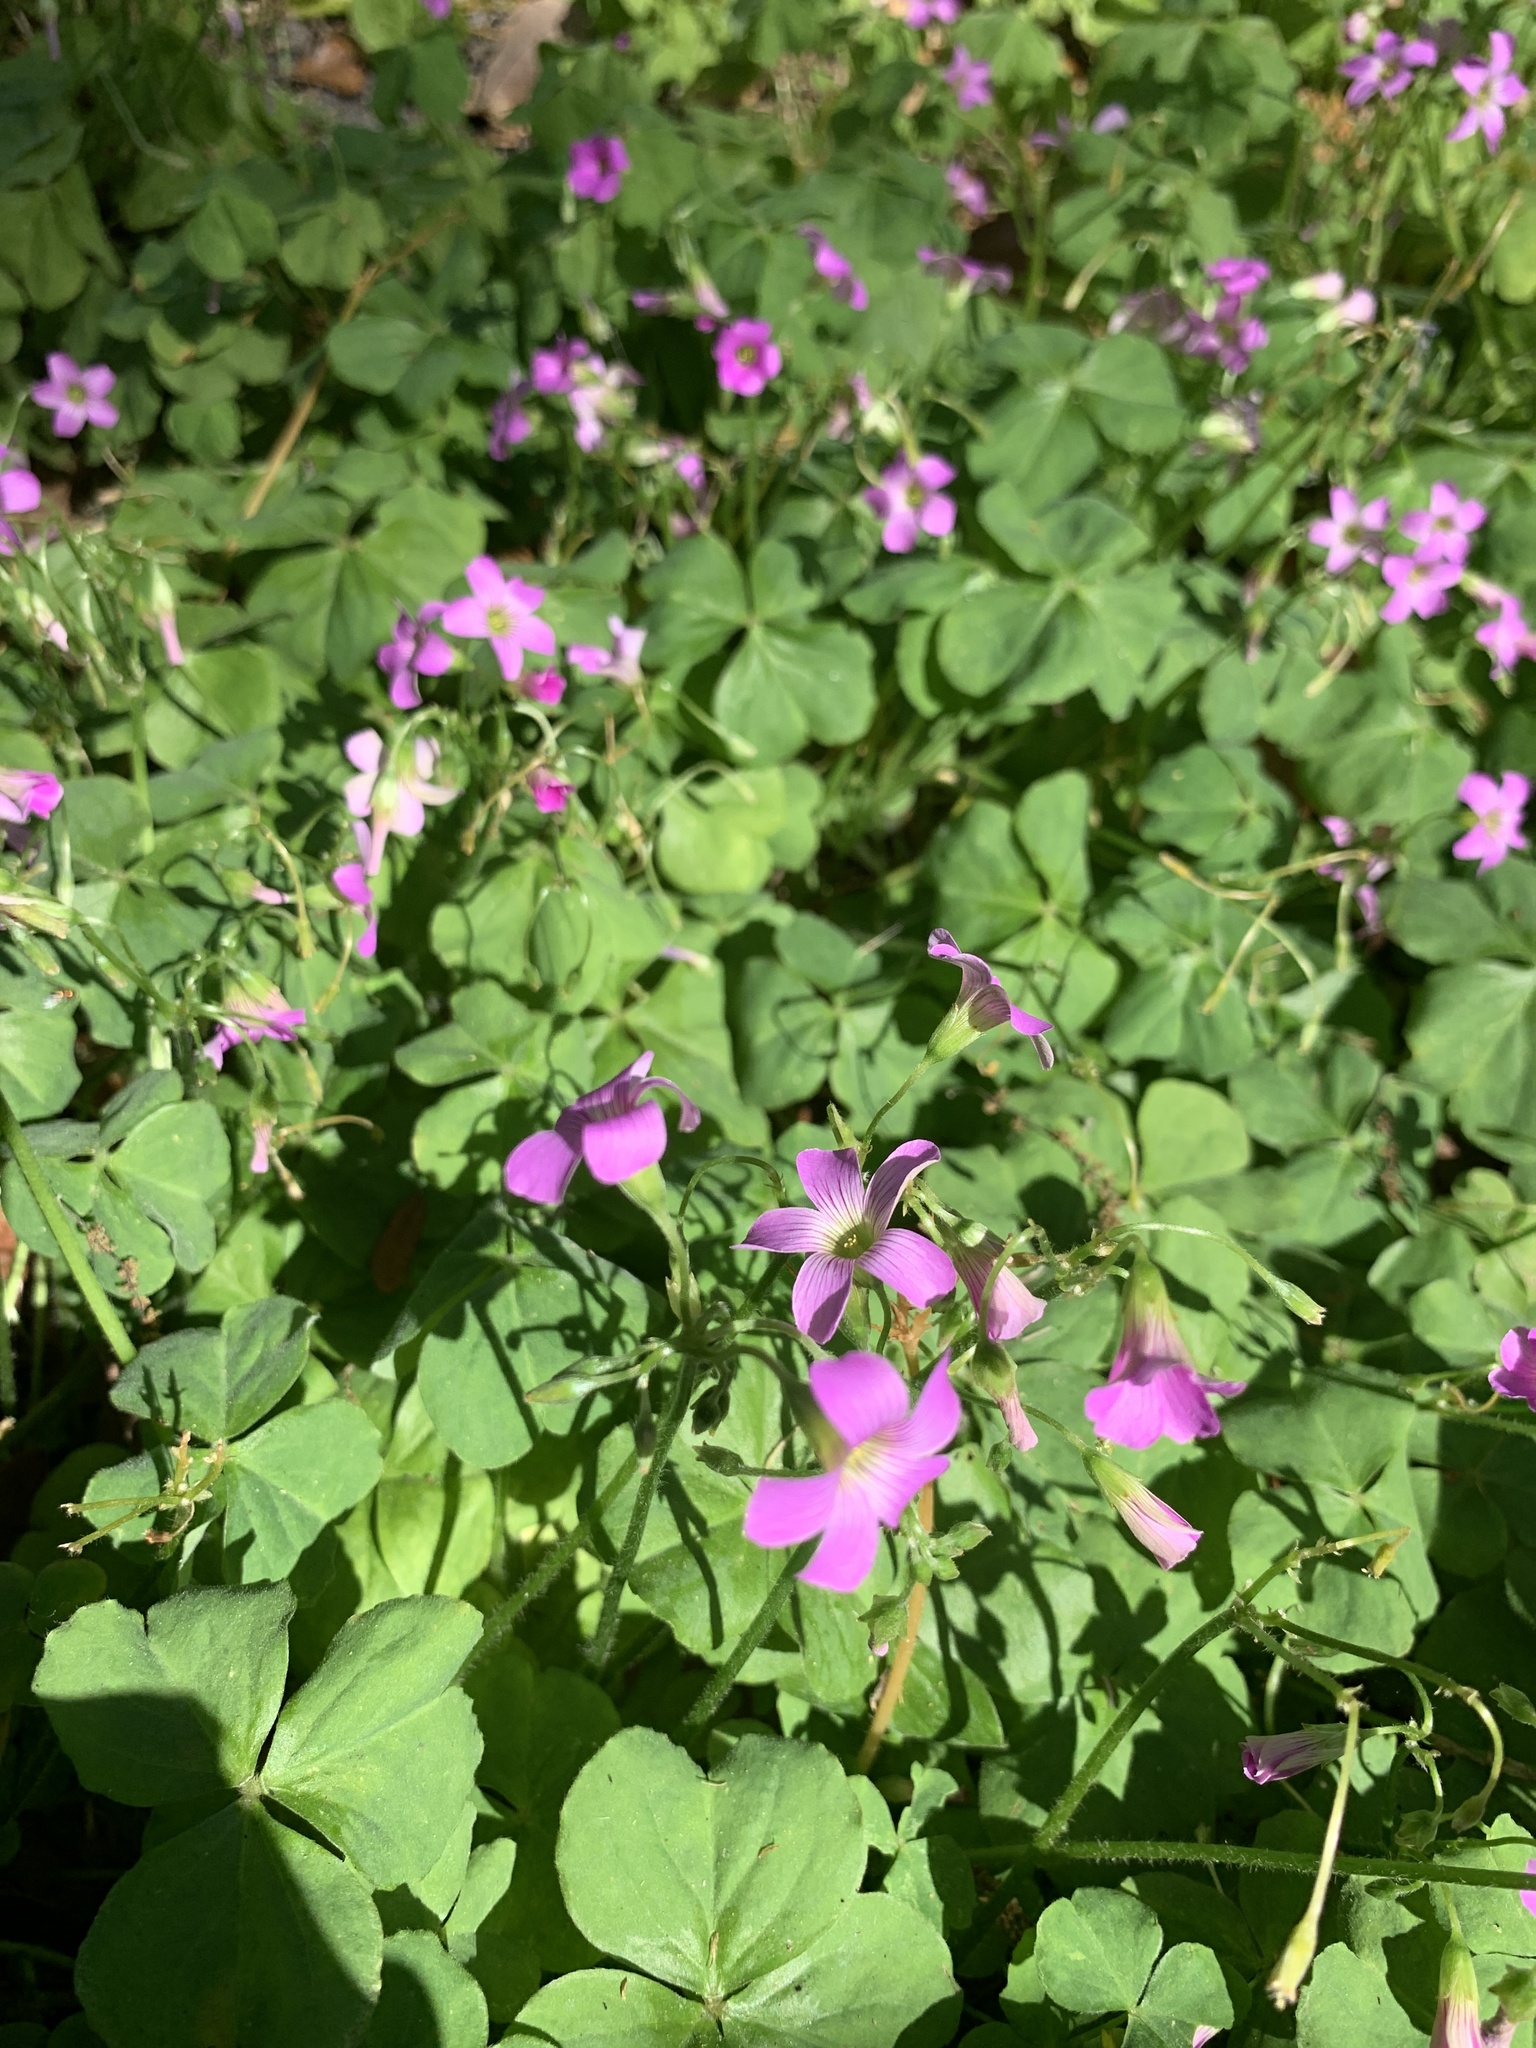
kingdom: Plantae
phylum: Tracheophyta
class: Magnoliopsida
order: Oxalidales
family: Oxalidaceae
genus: Oxalis
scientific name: Oxalis debilis
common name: Large-flowered pink-sorrel
